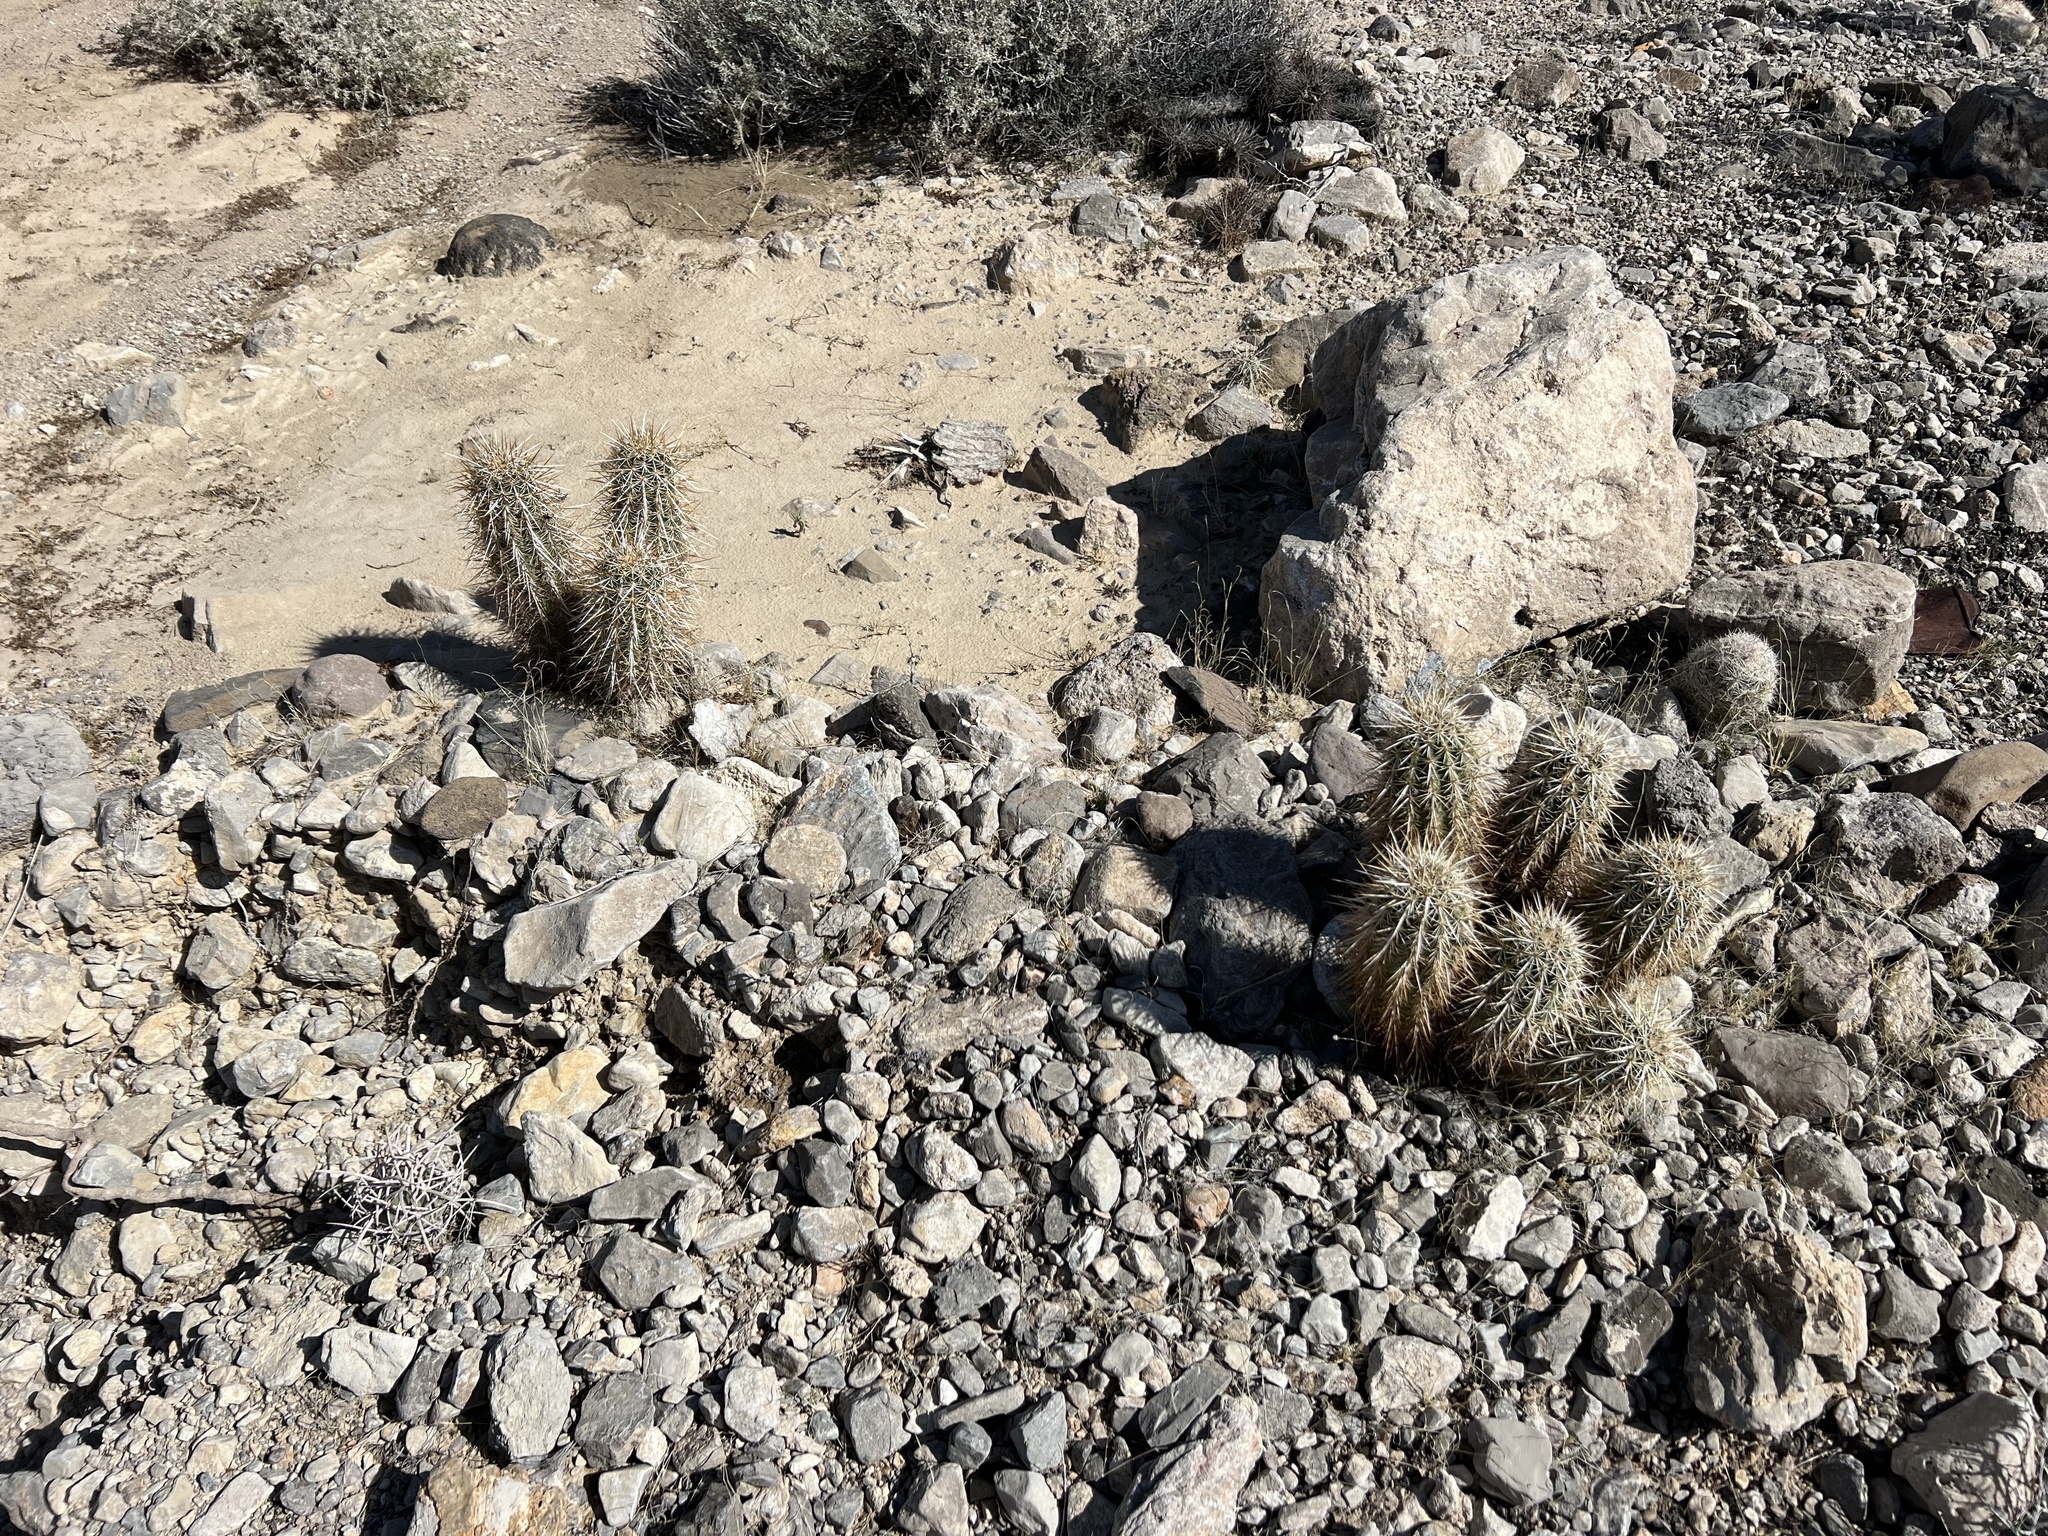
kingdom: Plantae
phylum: Tracheophyta
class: Magnoliopsida
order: Caryophyllales
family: Cactaceae
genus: Echinocereus
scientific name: Echinocereus engelmannii
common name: Engelmann's hedgehog cactus
